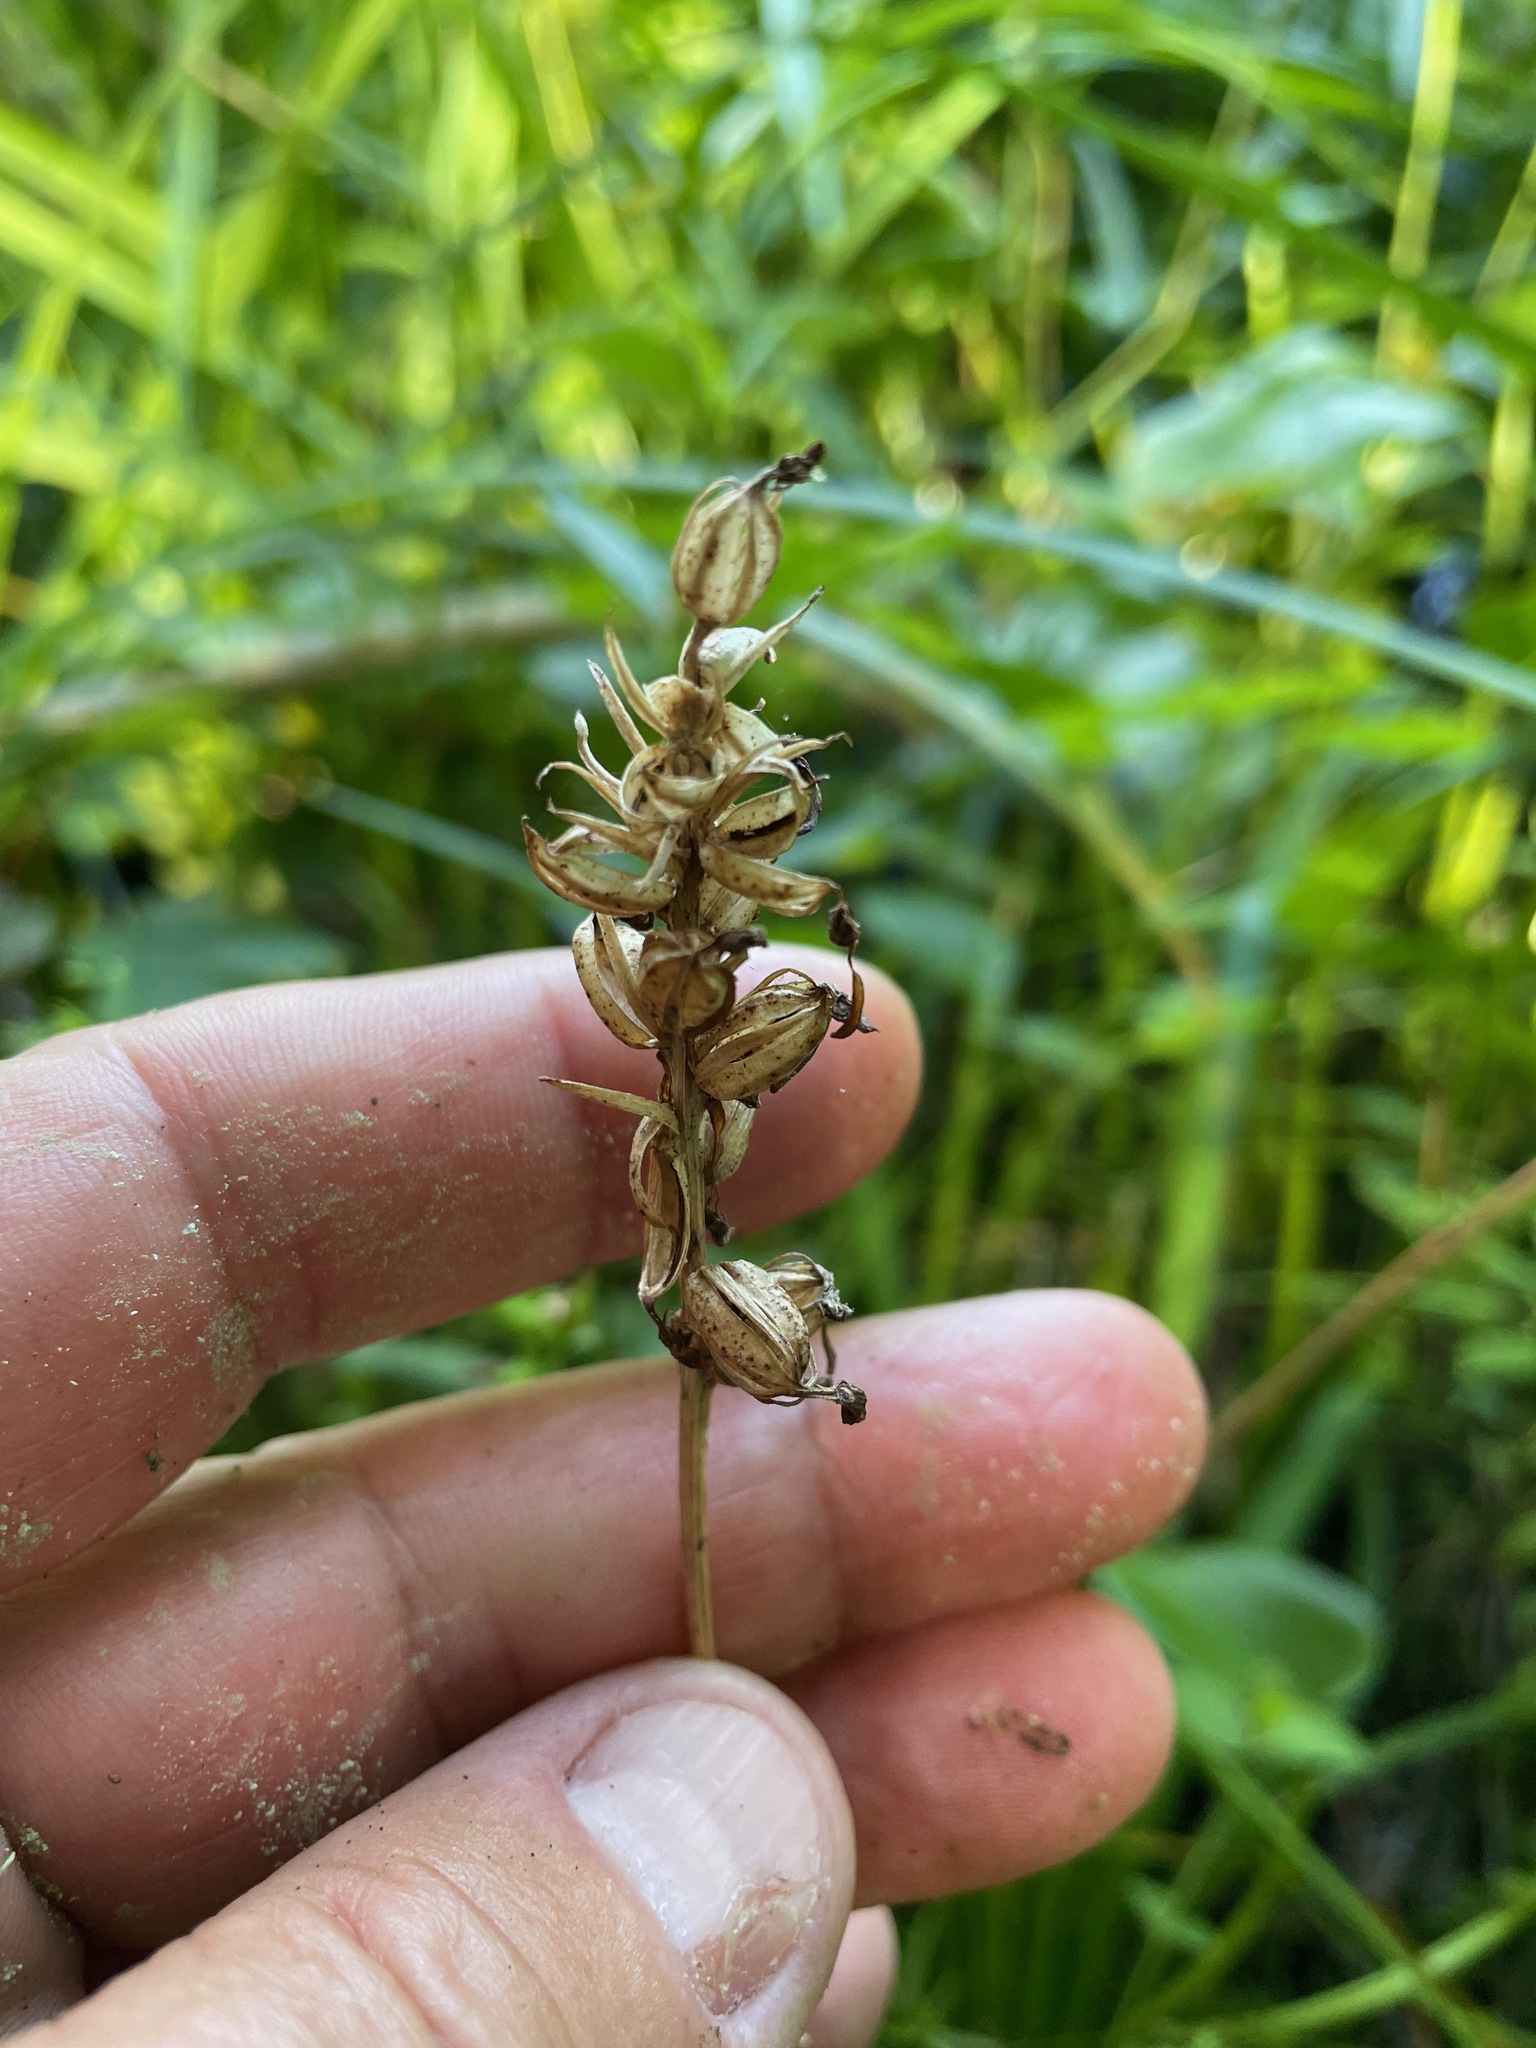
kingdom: Plantae
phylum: Tracheophyta
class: Liliopsida
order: Asparagales
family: Orchidaceae
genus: Platanthera
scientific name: Platanthera clavellata
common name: Club-spur orchid
